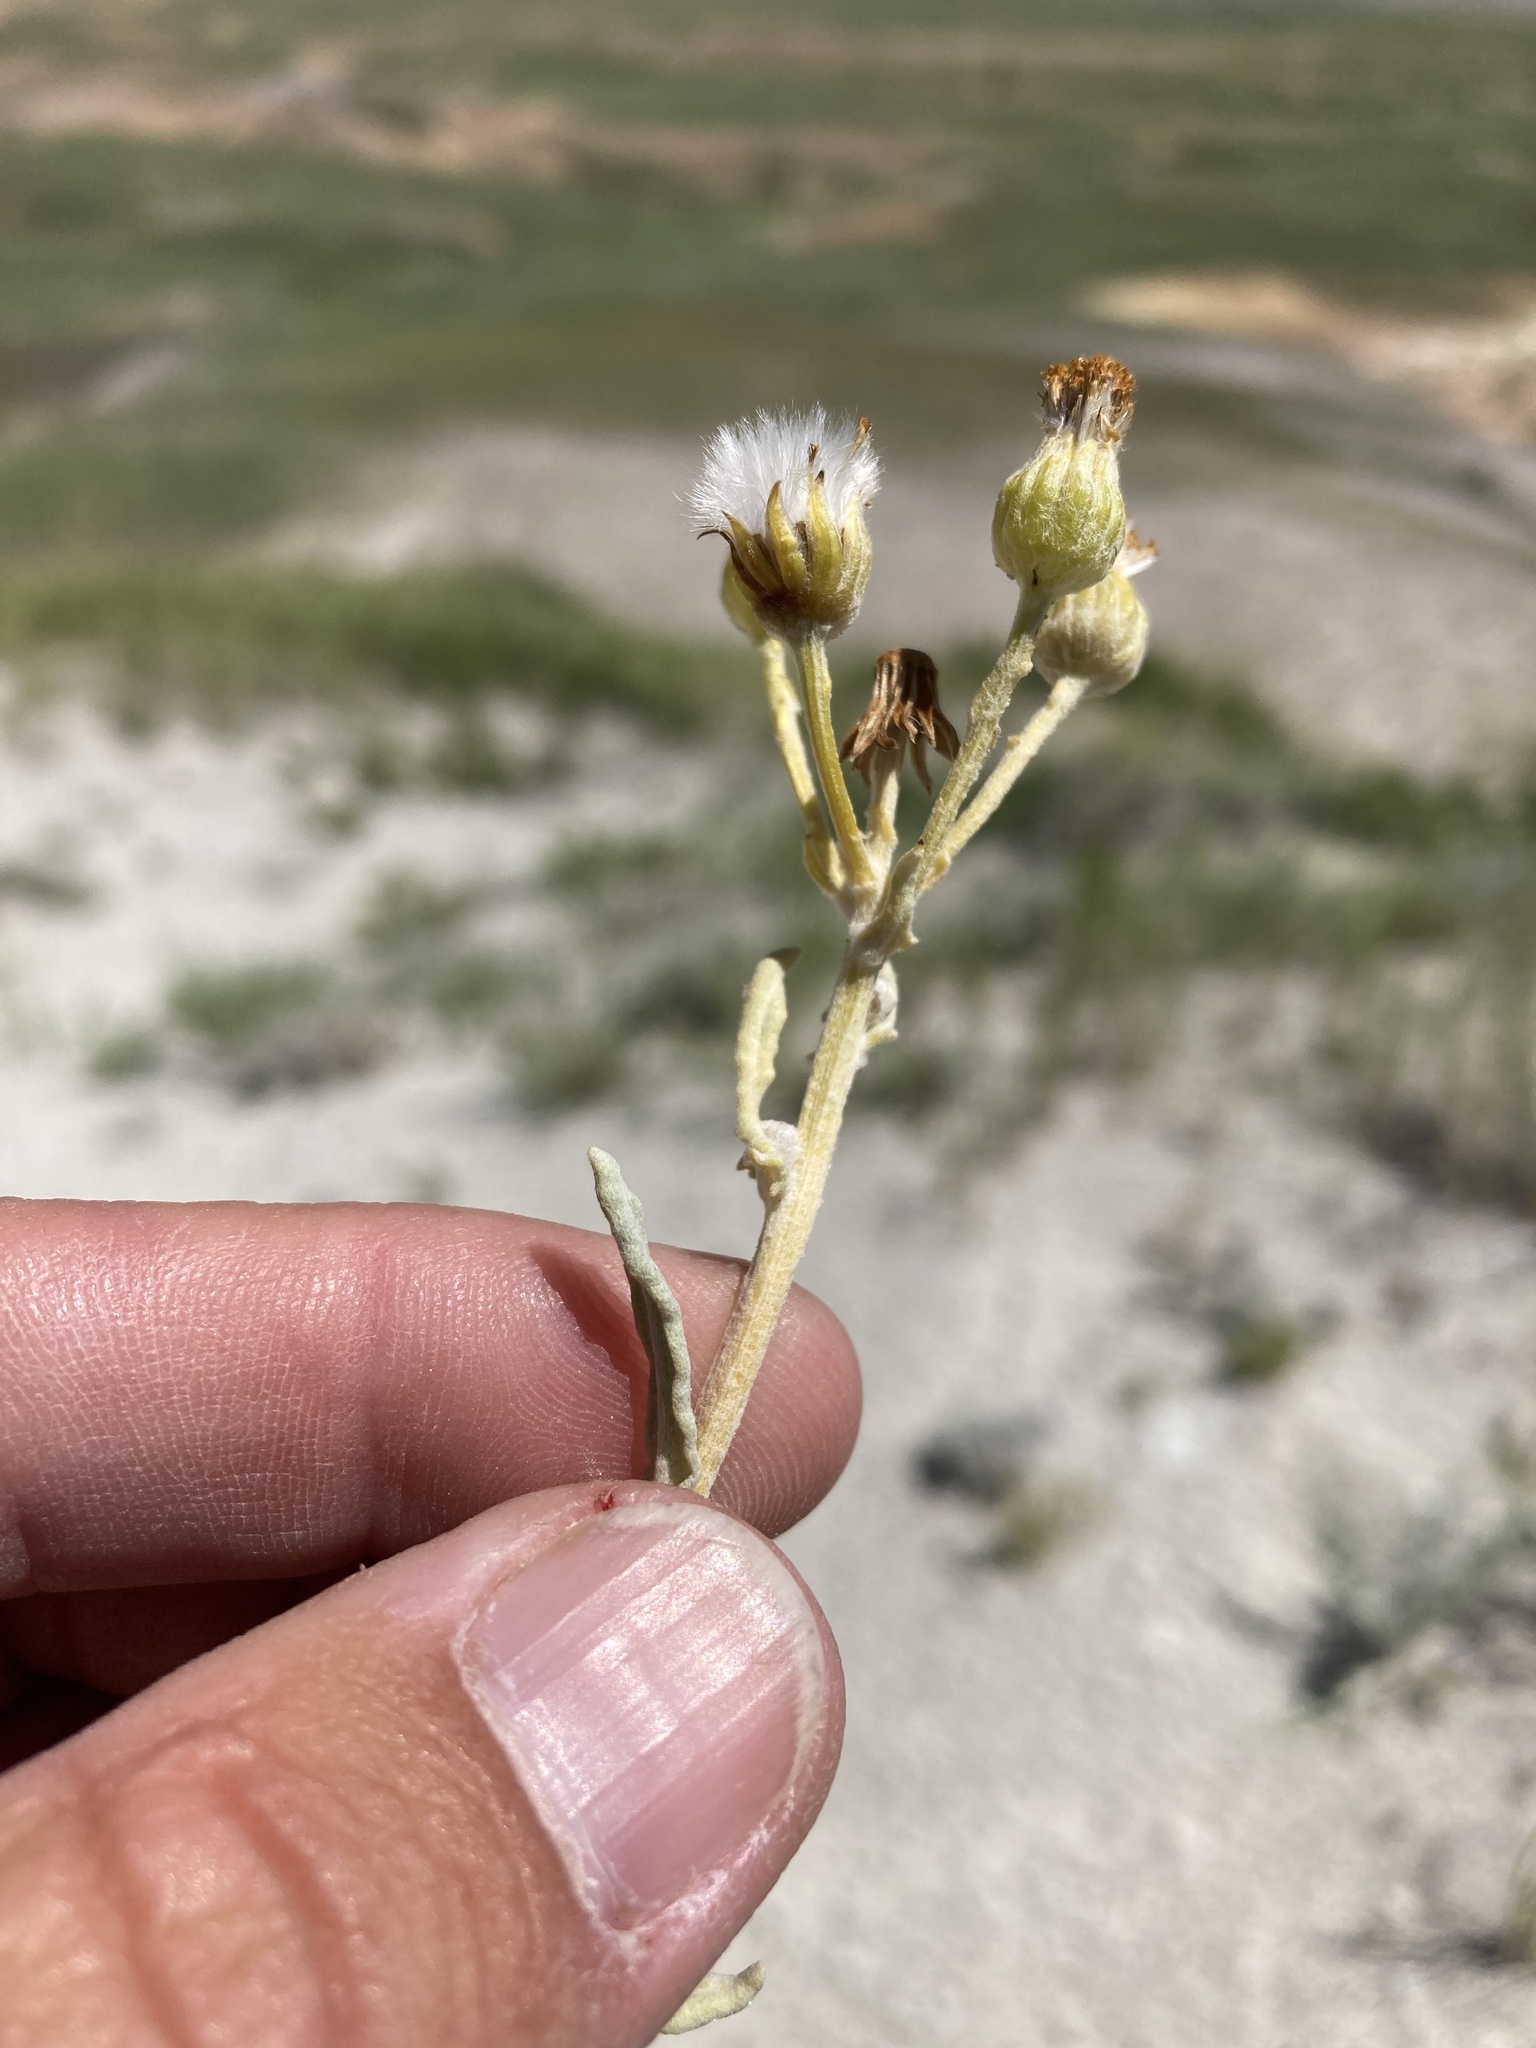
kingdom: Plantae
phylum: Tracheophyta
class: Magnoliopsida
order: Asterales
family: Asteraceae
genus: Packera
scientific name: Packera cana
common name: Woolly groundsel
